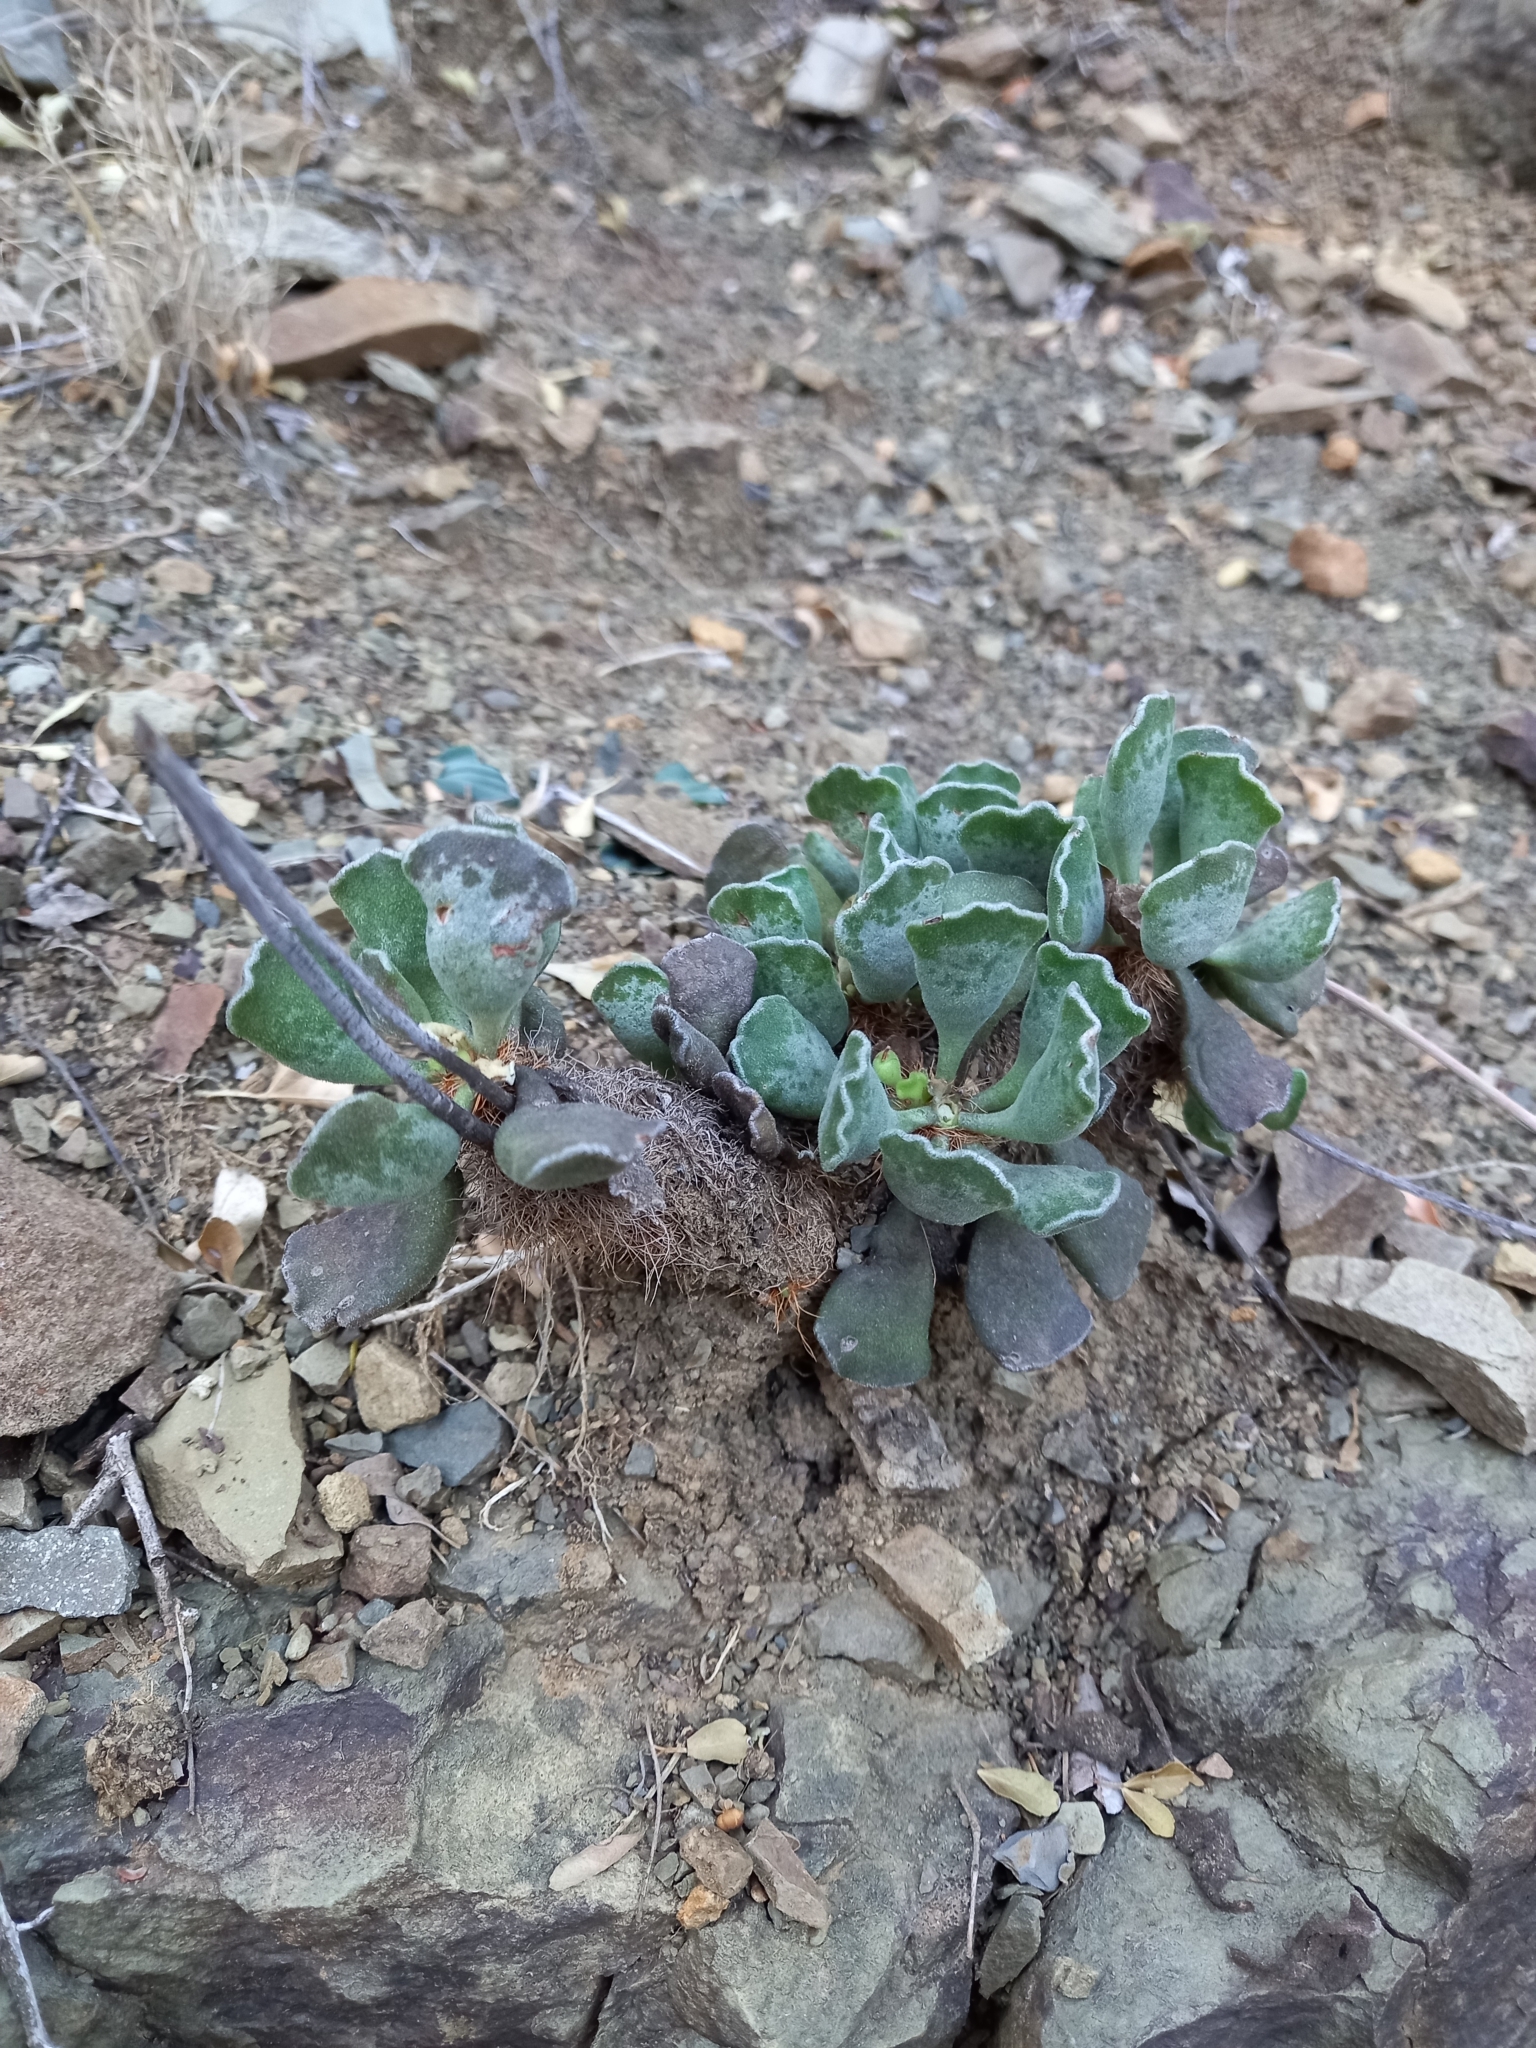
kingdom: Plantae
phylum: Tracheophyta
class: Magnoliopsida
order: Saxifragales
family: Crassulaceae
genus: Adromischus
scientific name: Adromischus cristatus
